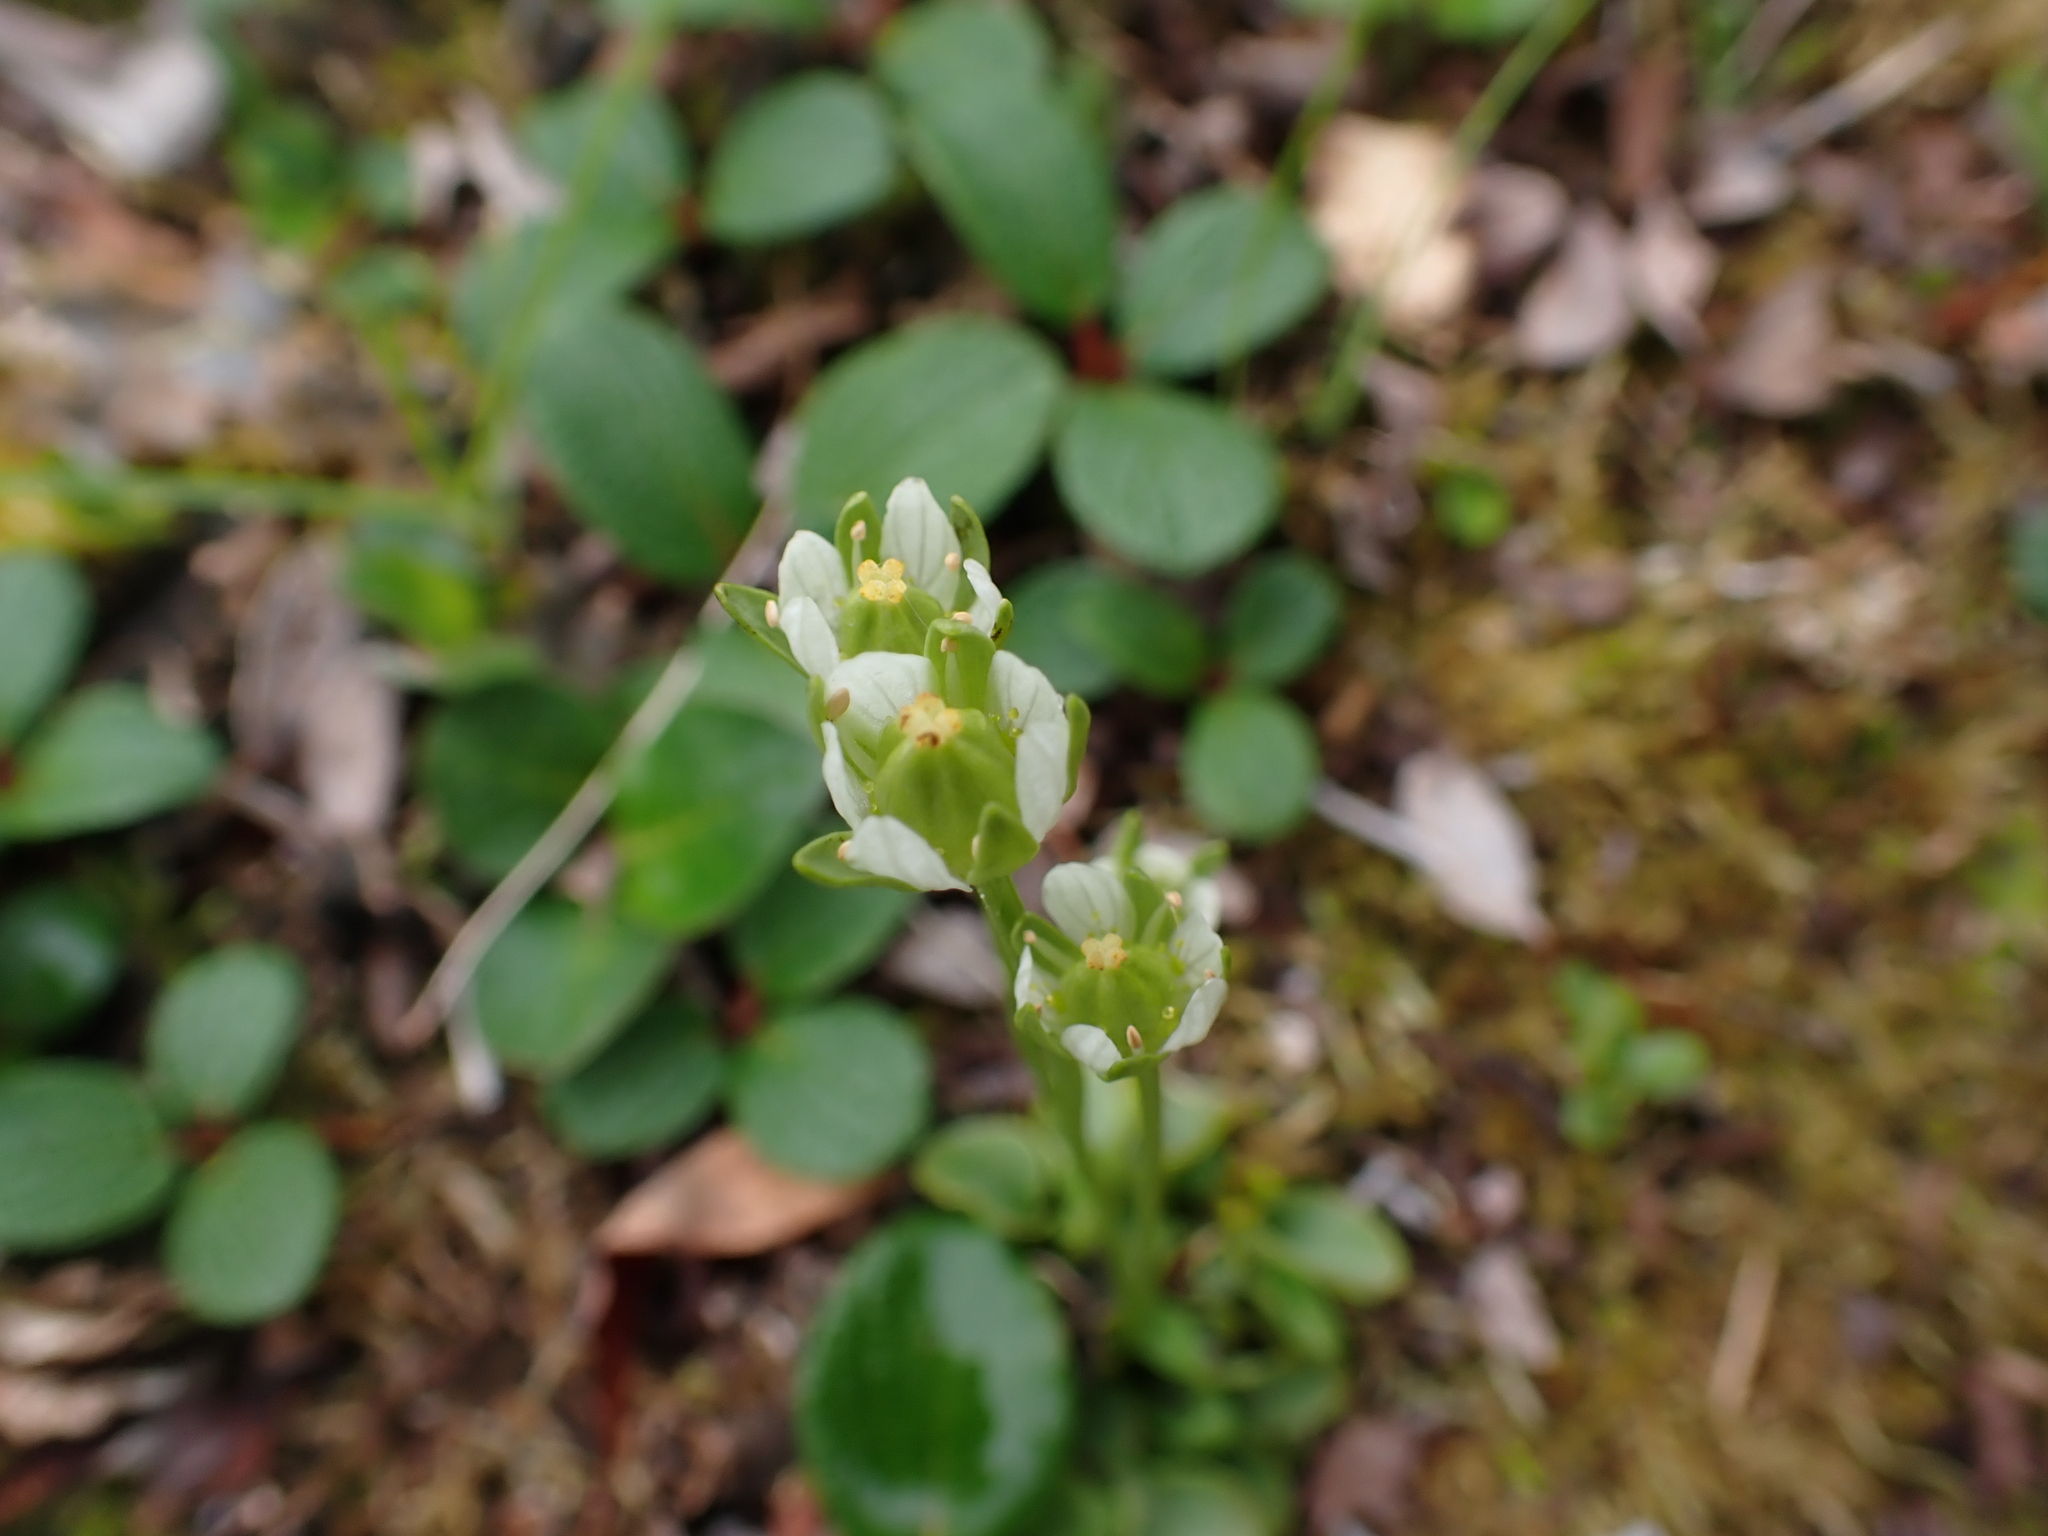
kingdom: Plantae
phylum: Tracheophyta
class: Magnoliopsida
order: Celastrales
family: Parnassiaceae
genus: Parnassia
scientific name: Parnassia kotzebuei
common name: Kotzebue's grass-of-parnassus
